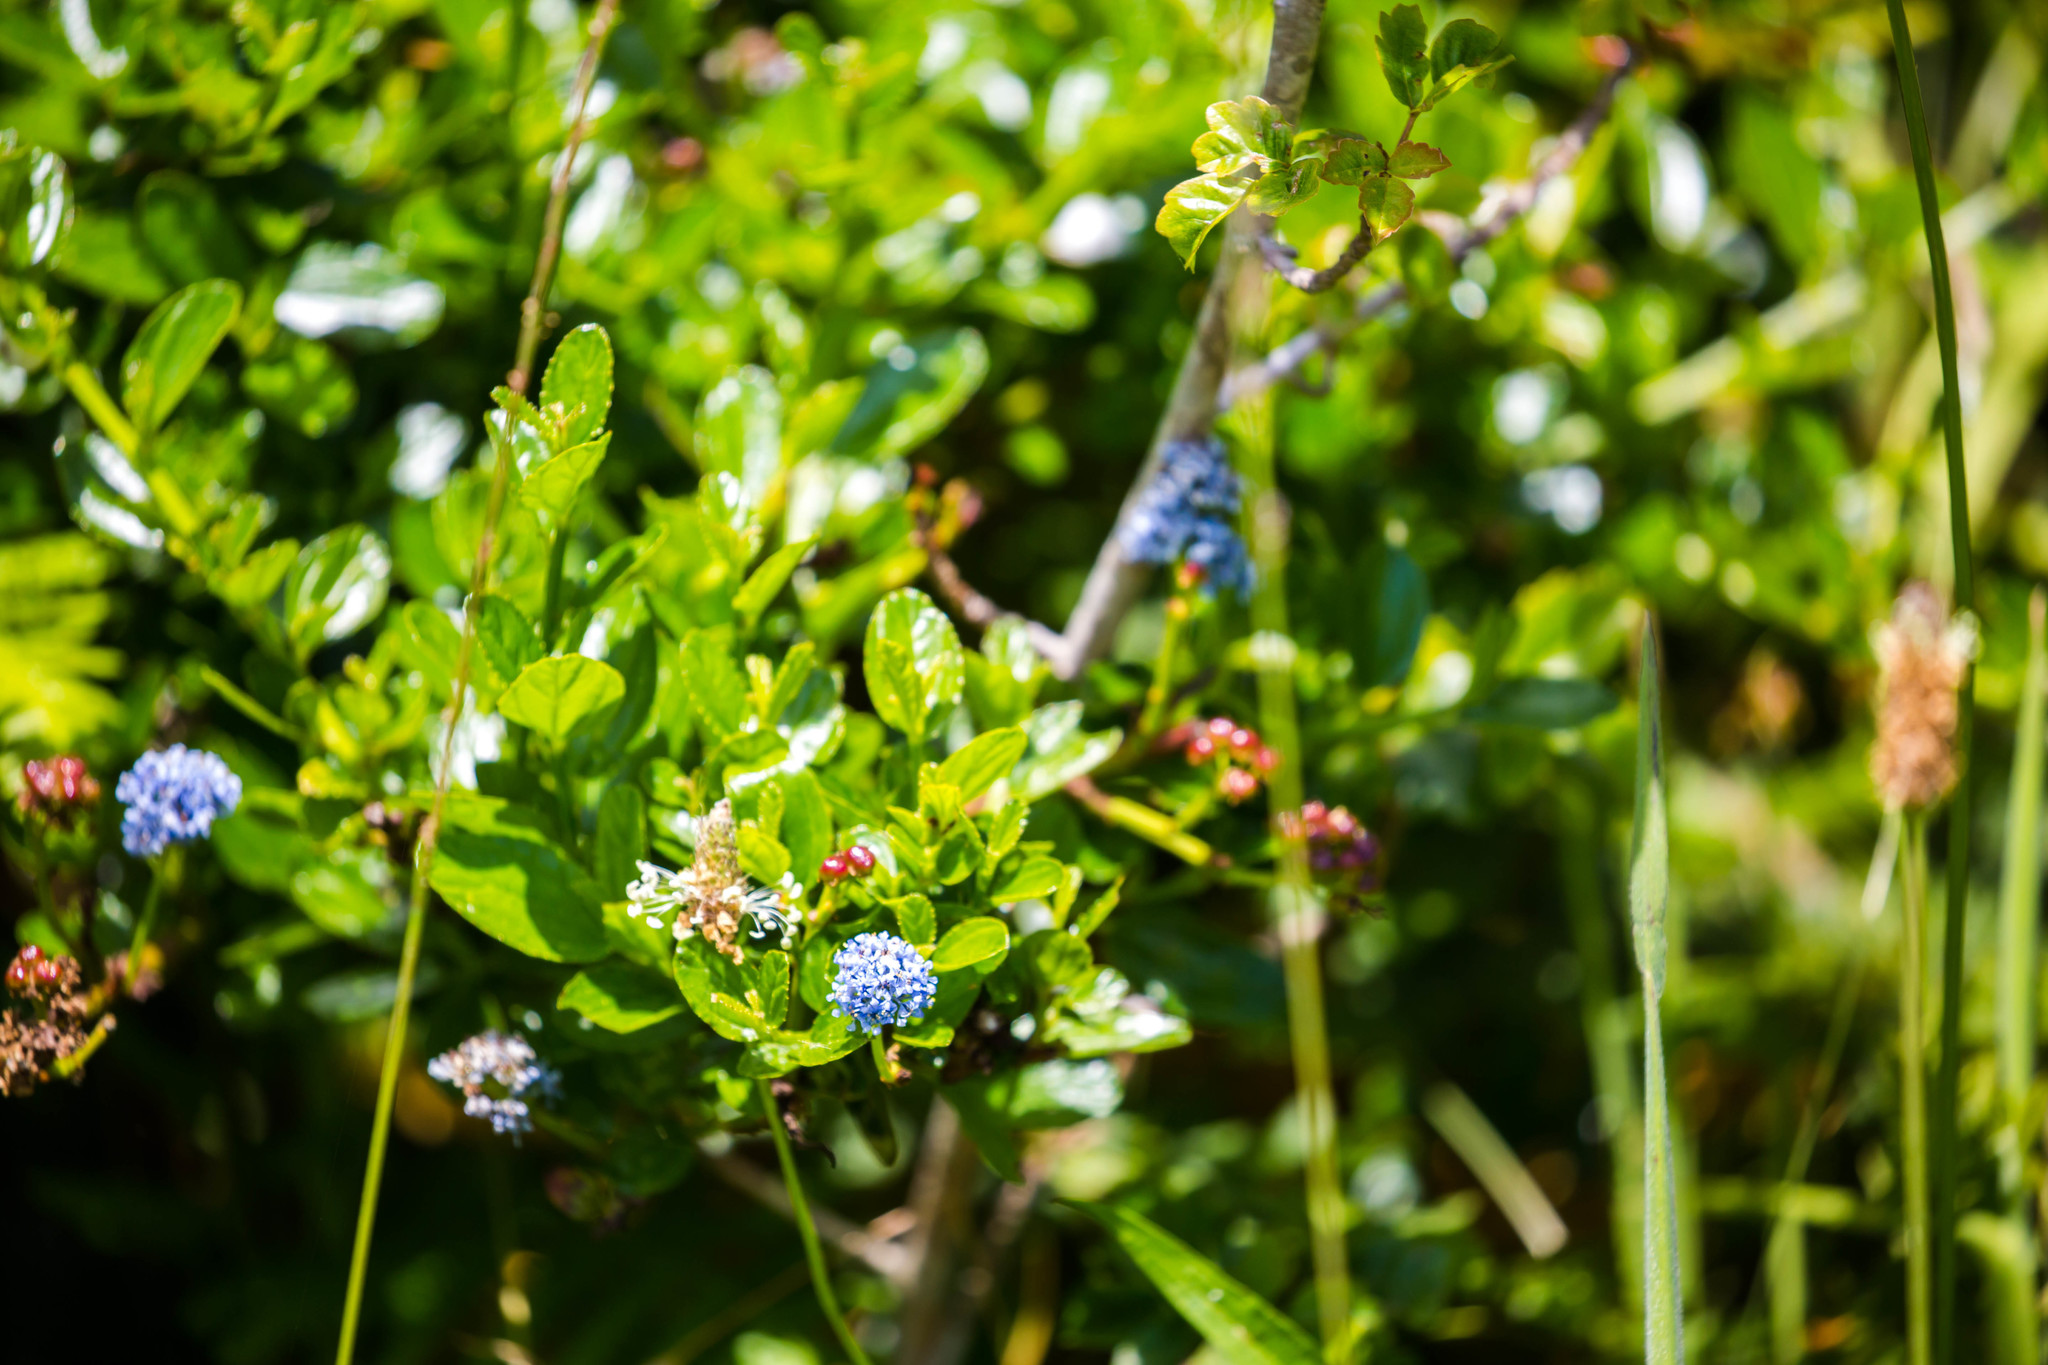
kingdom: Plantae
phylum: Tracheophyta
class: Magnoliopsida
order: Rosales
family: Rhamnaceae
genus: Ceanothus
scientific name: Ceanothus thyrsiflorus
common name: California-lilac
